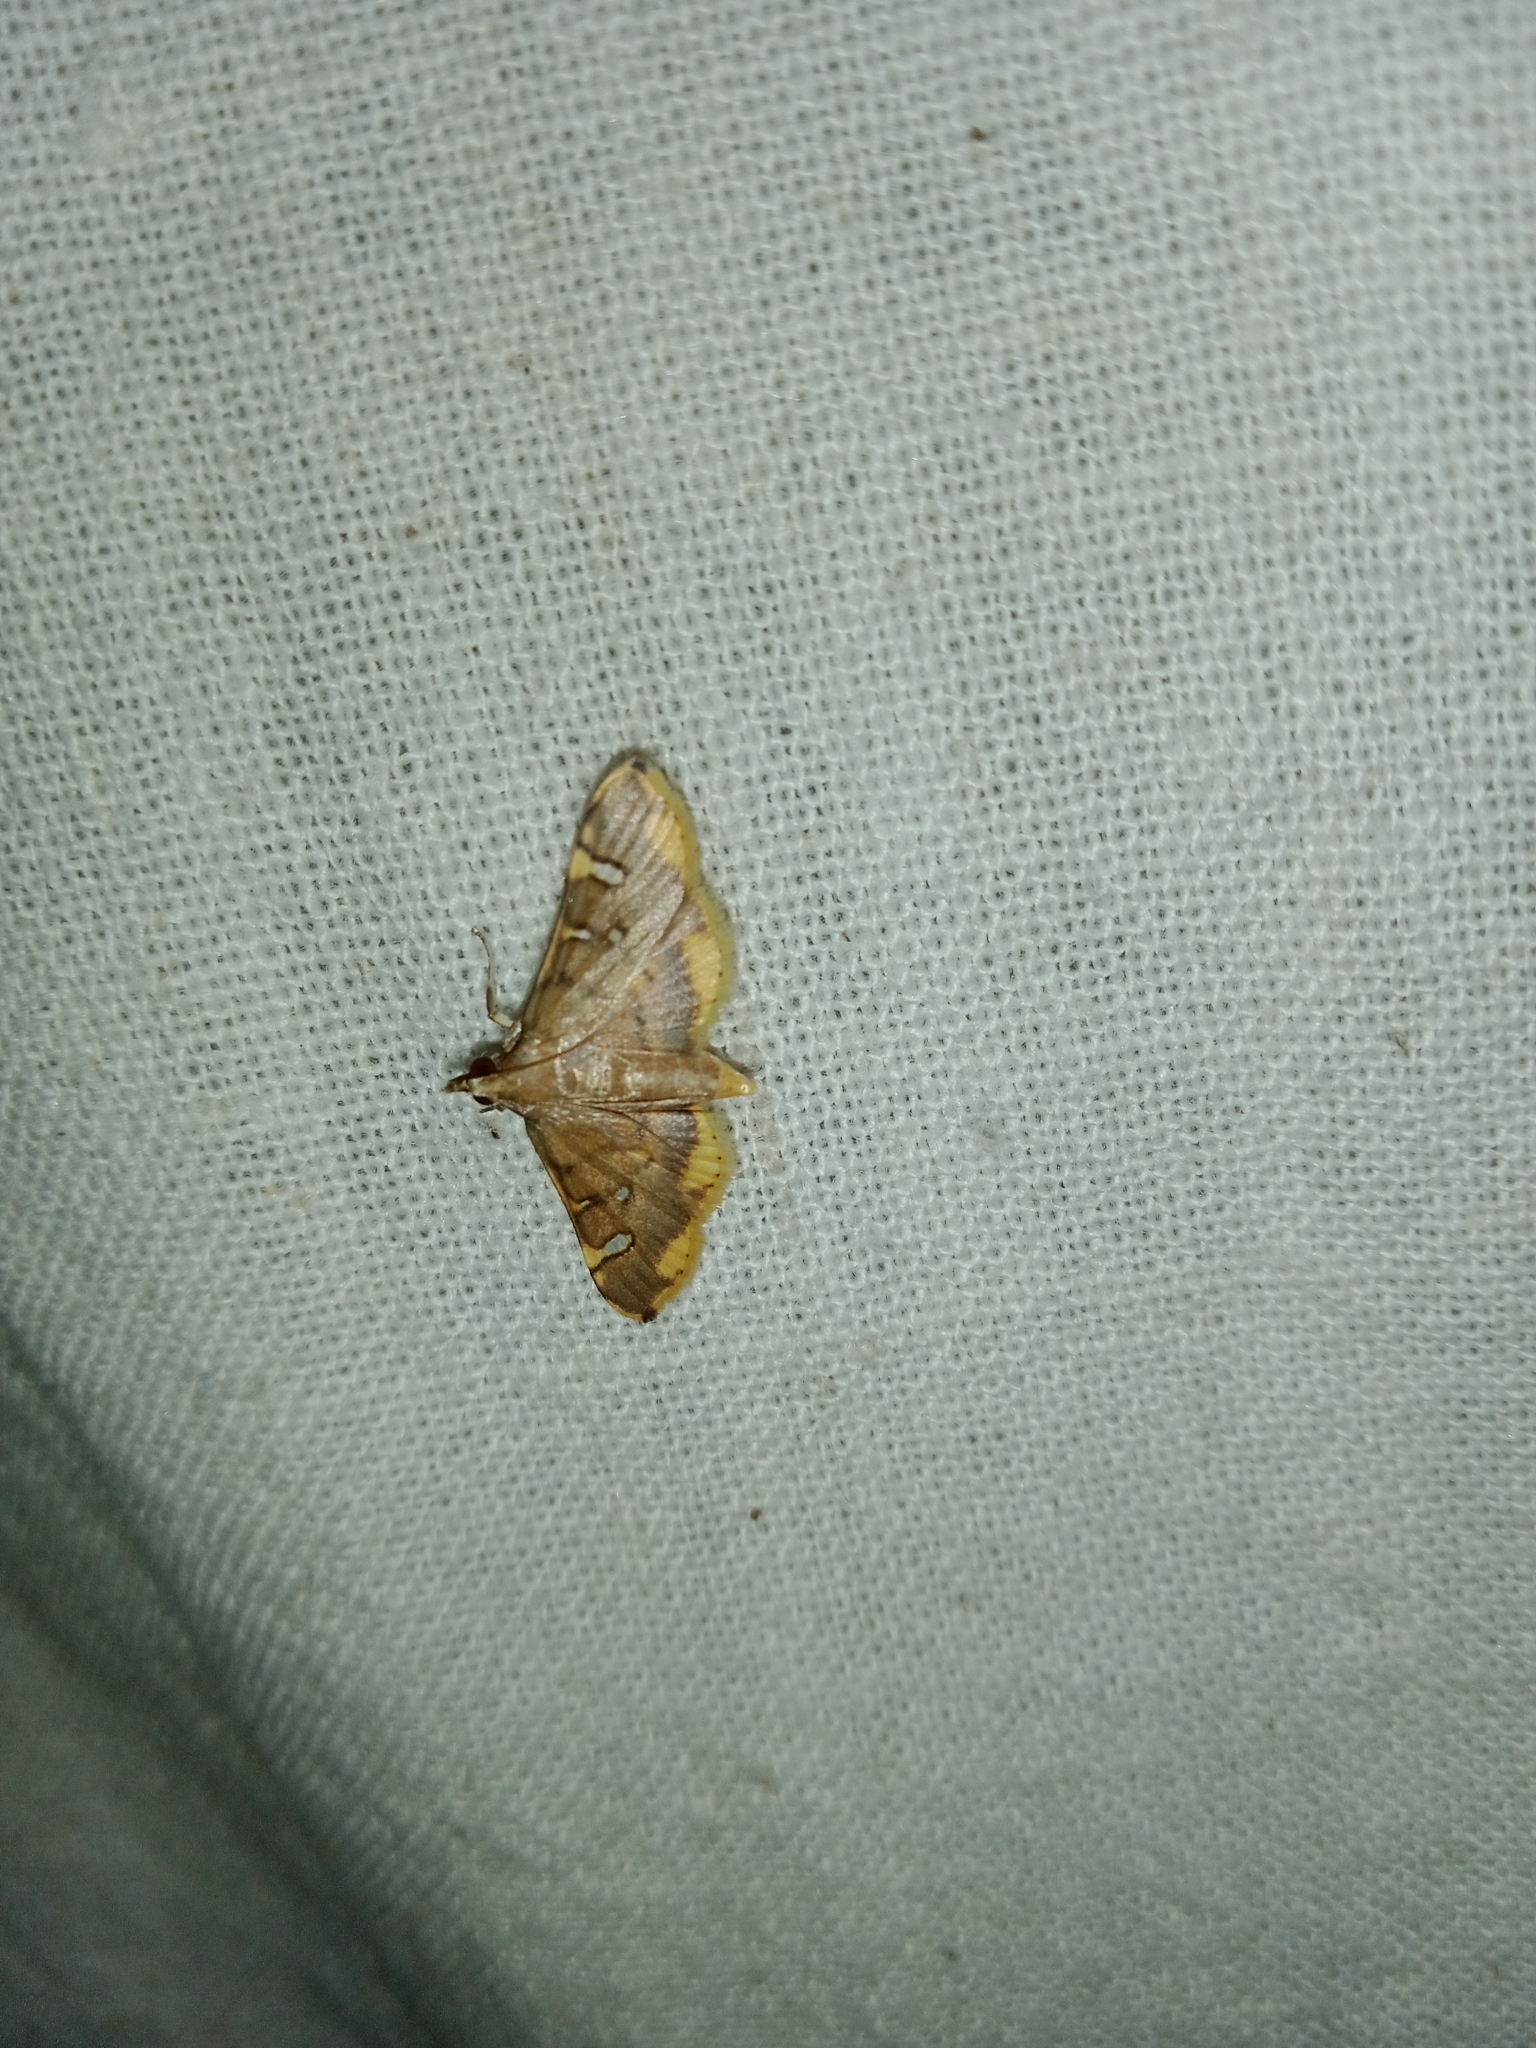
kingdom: Animalia
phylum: Arthropoda
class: Insecta
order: Lepidoptera
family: Crambidae
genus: Prophantis
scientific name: Prophantis adusta
